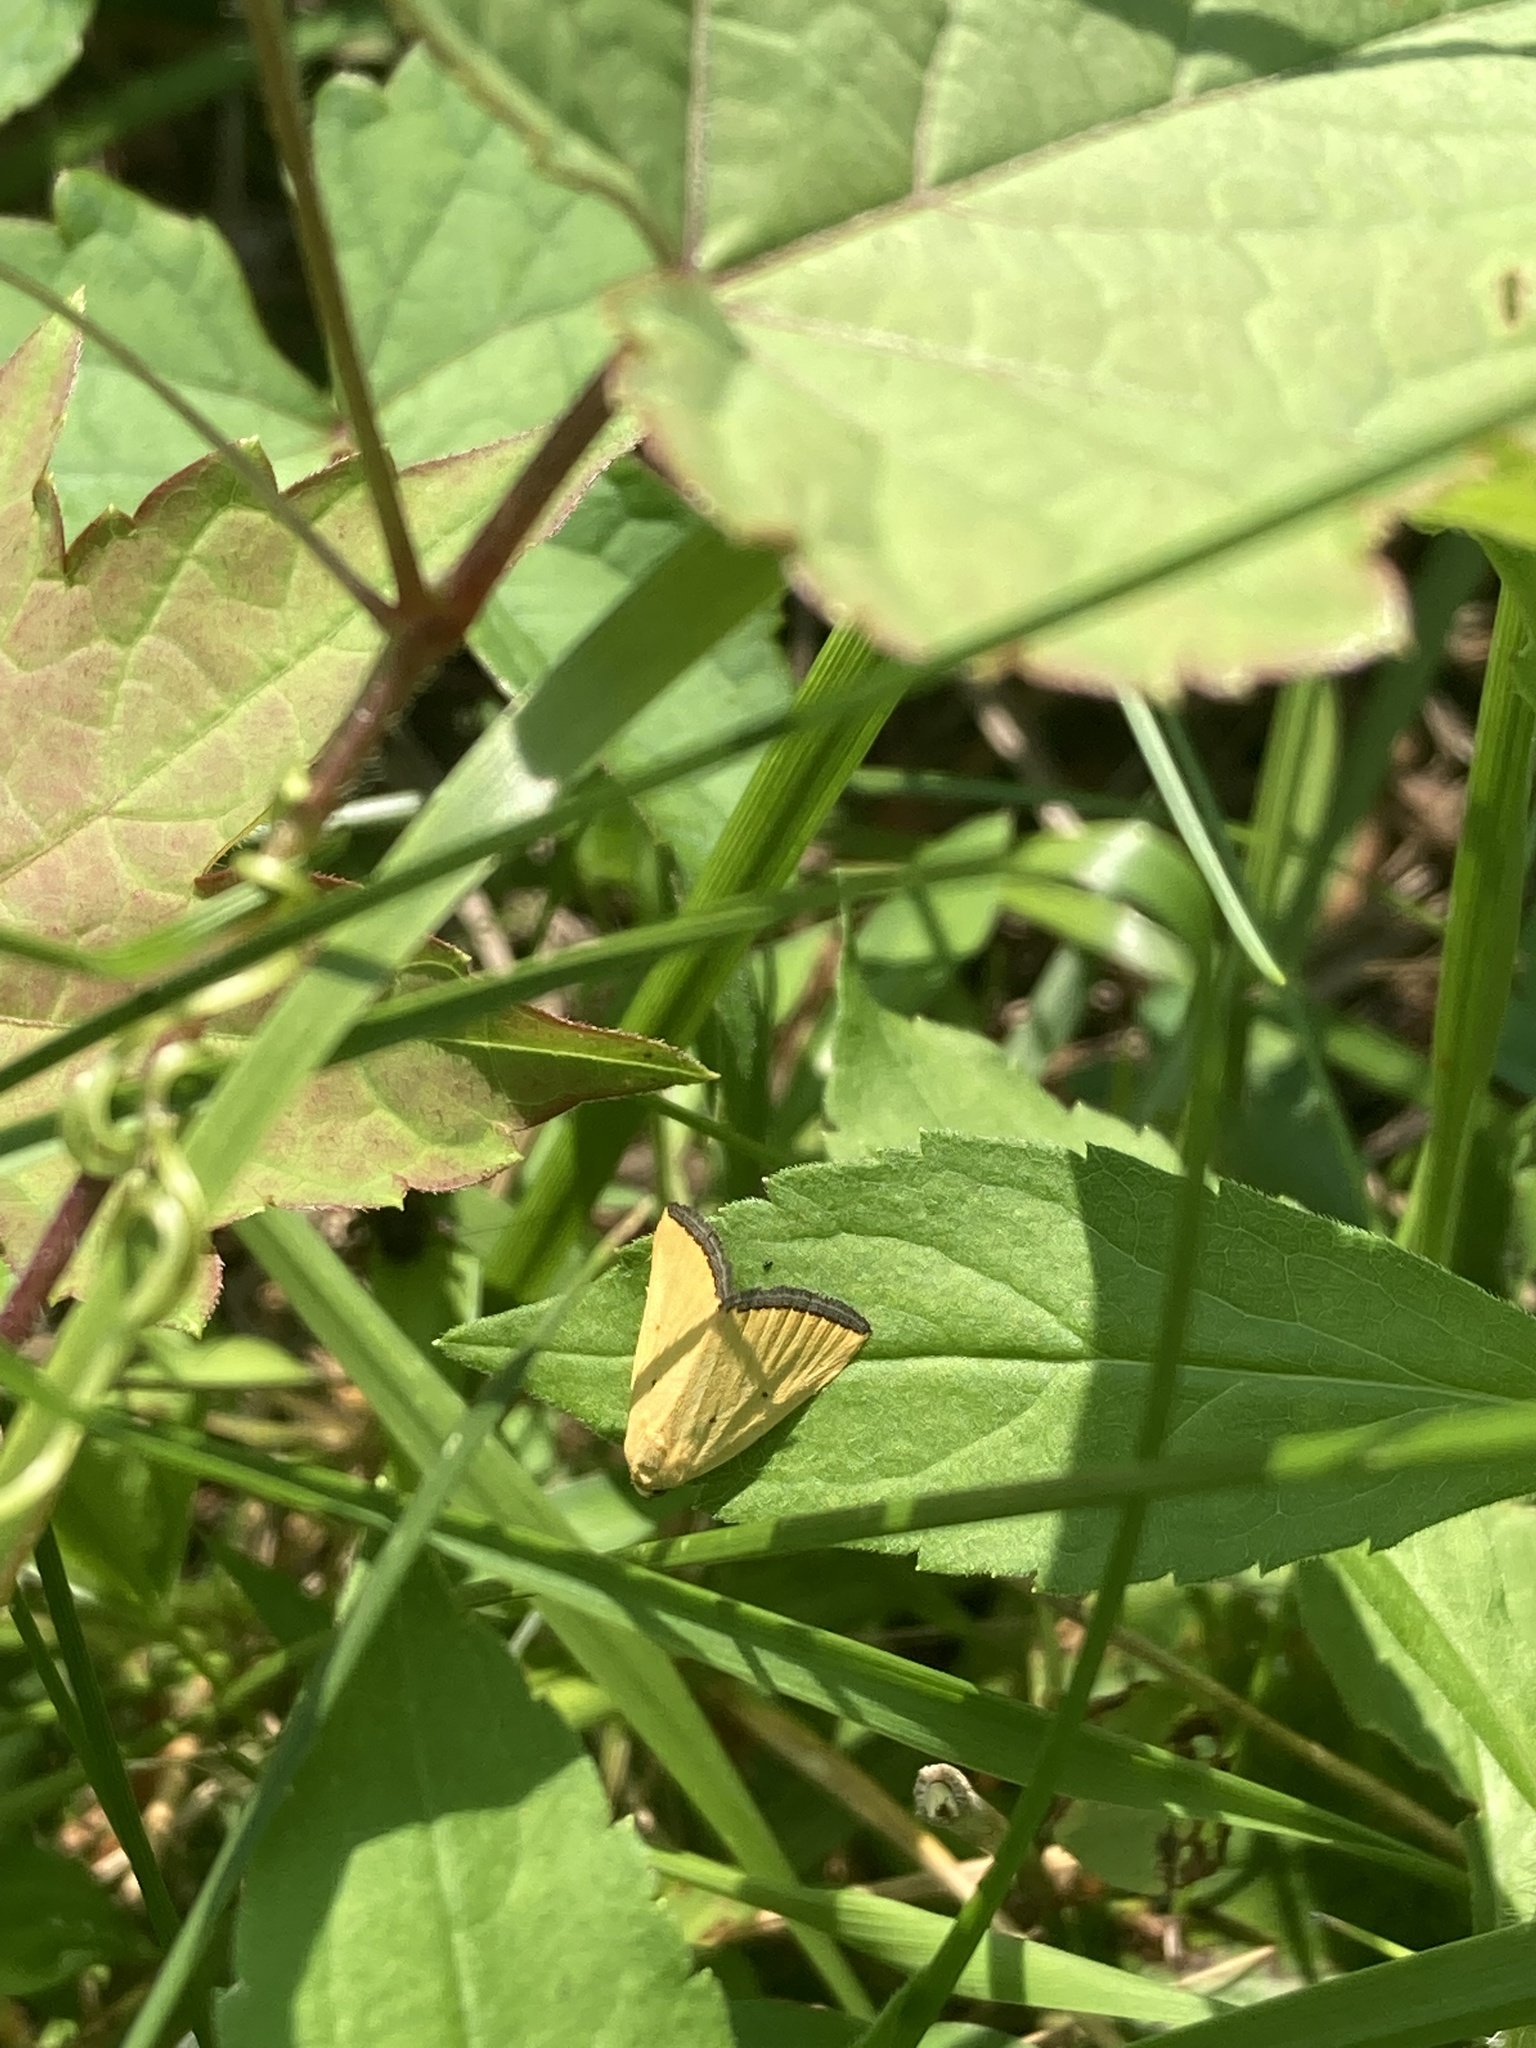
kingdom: Animalia
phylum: Arthropoda
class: Insecta
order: Lepidoptera
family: Noctuidae
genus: Marimatha
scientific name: Marimatha nigrofimbria
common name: Black-bordered lemon moth
